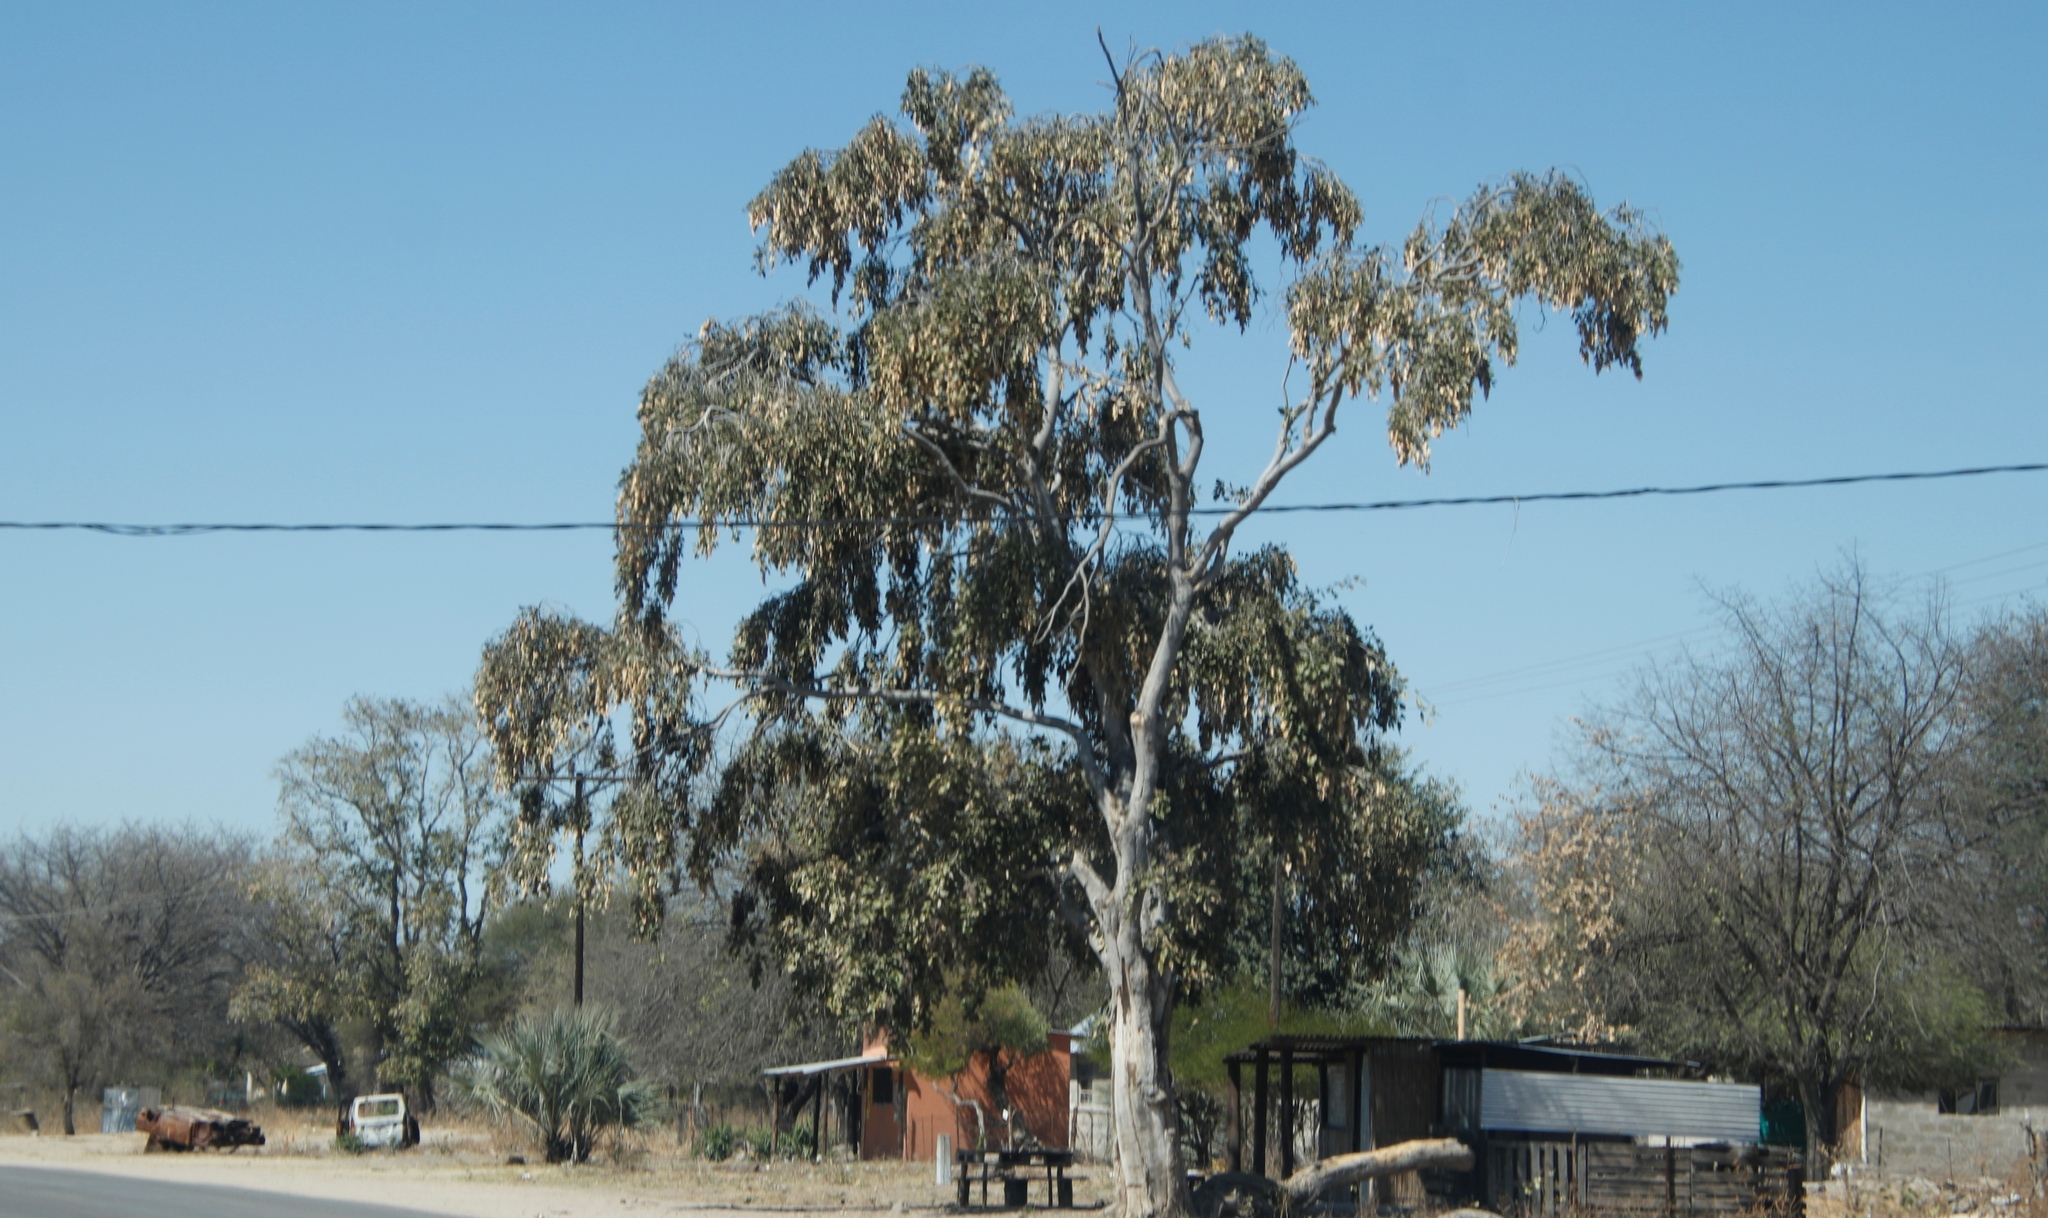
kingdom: Plantae
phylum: Tracheophyta
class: Magnoliopsida
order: Fabales
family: Fabaceae
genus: Philenoptera
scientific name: Philenoptera violacea
